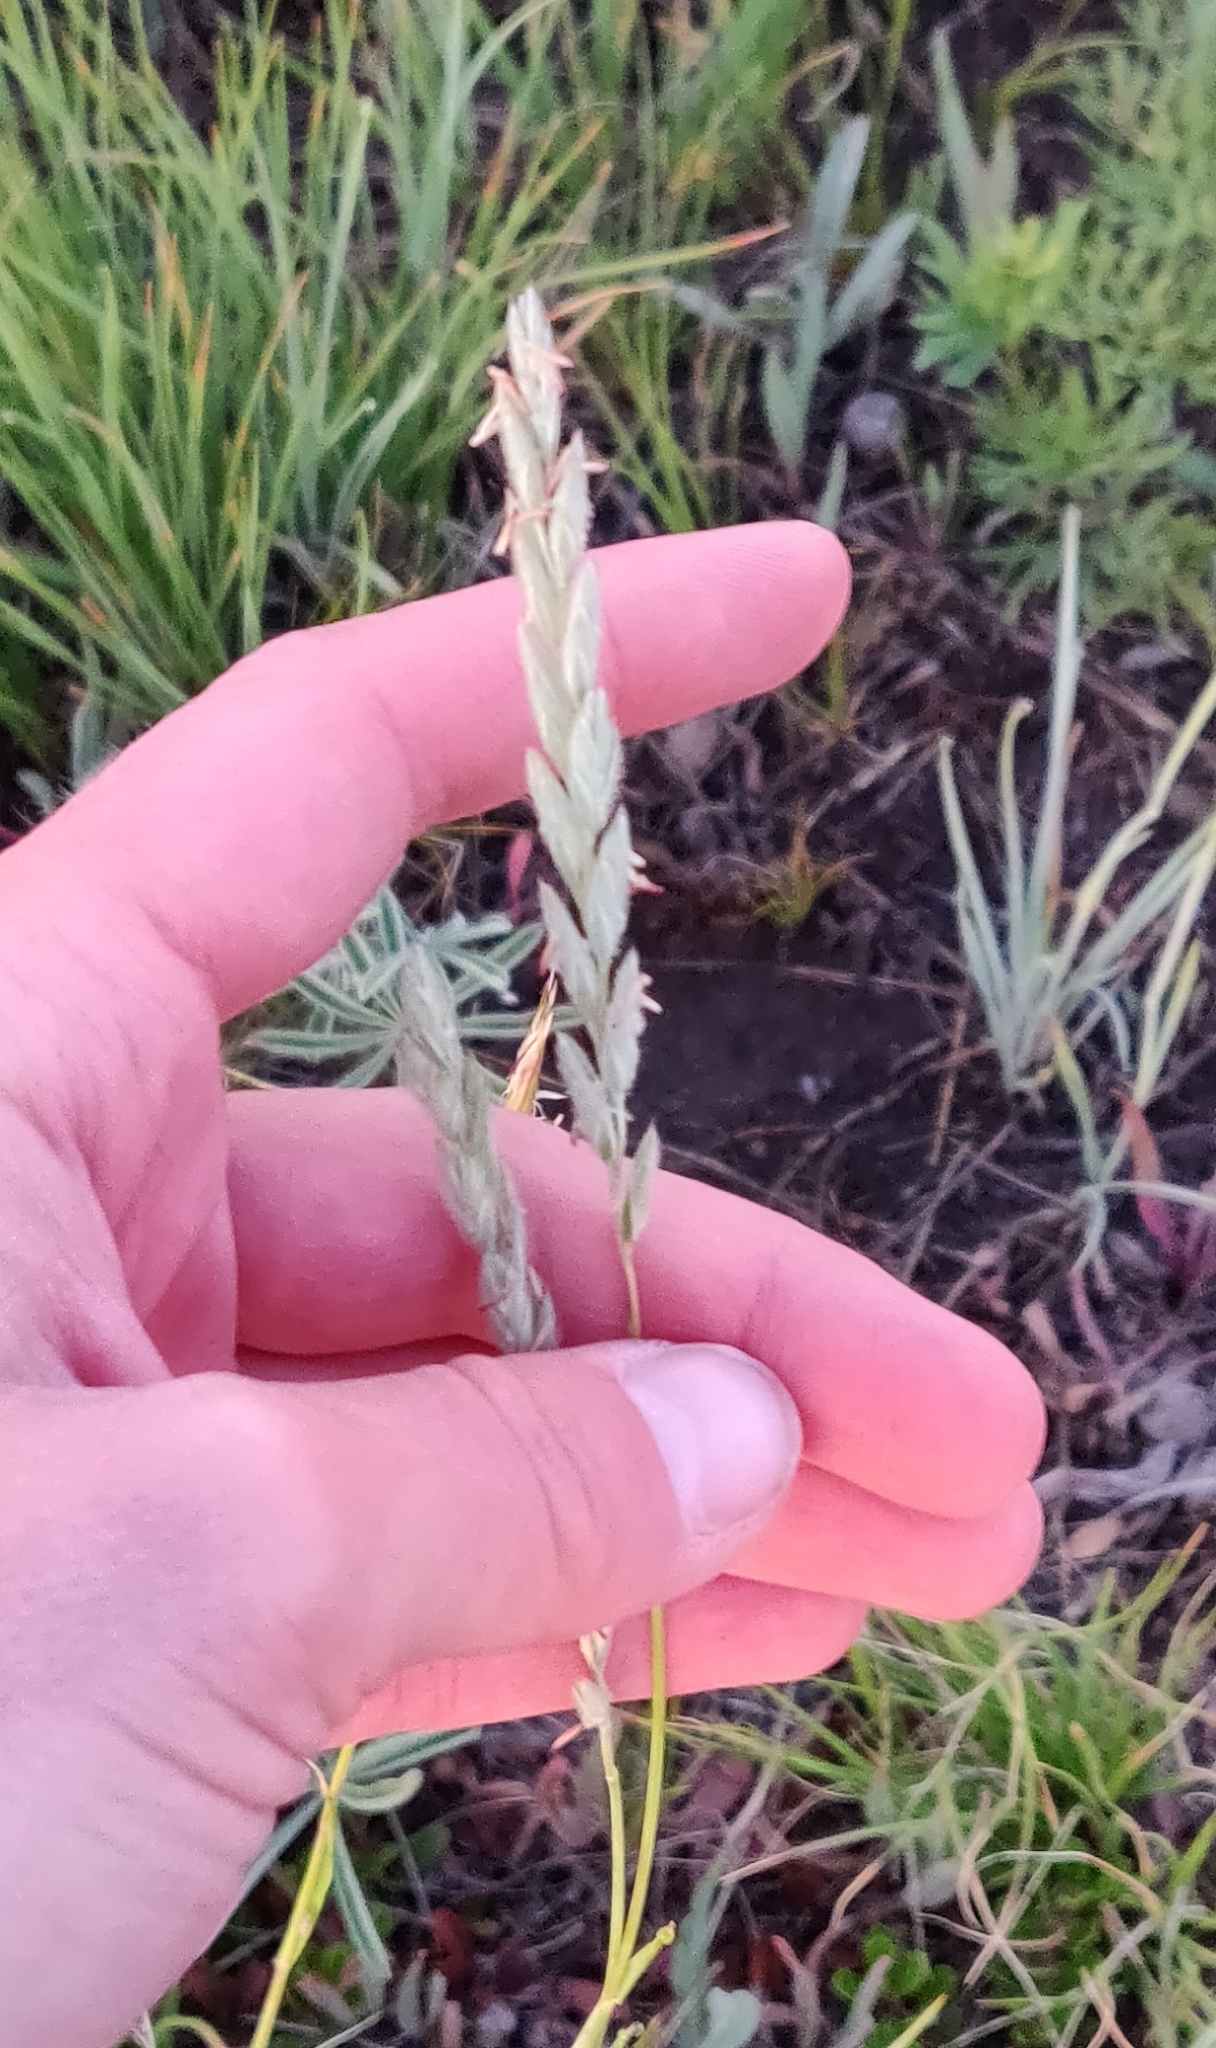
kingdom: Plantae
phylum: Tracheophyta
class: Liliopsida
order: Poales
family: Poaceae
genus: Leymus
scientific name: Leymus innovatus
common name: Boreal wild rye
